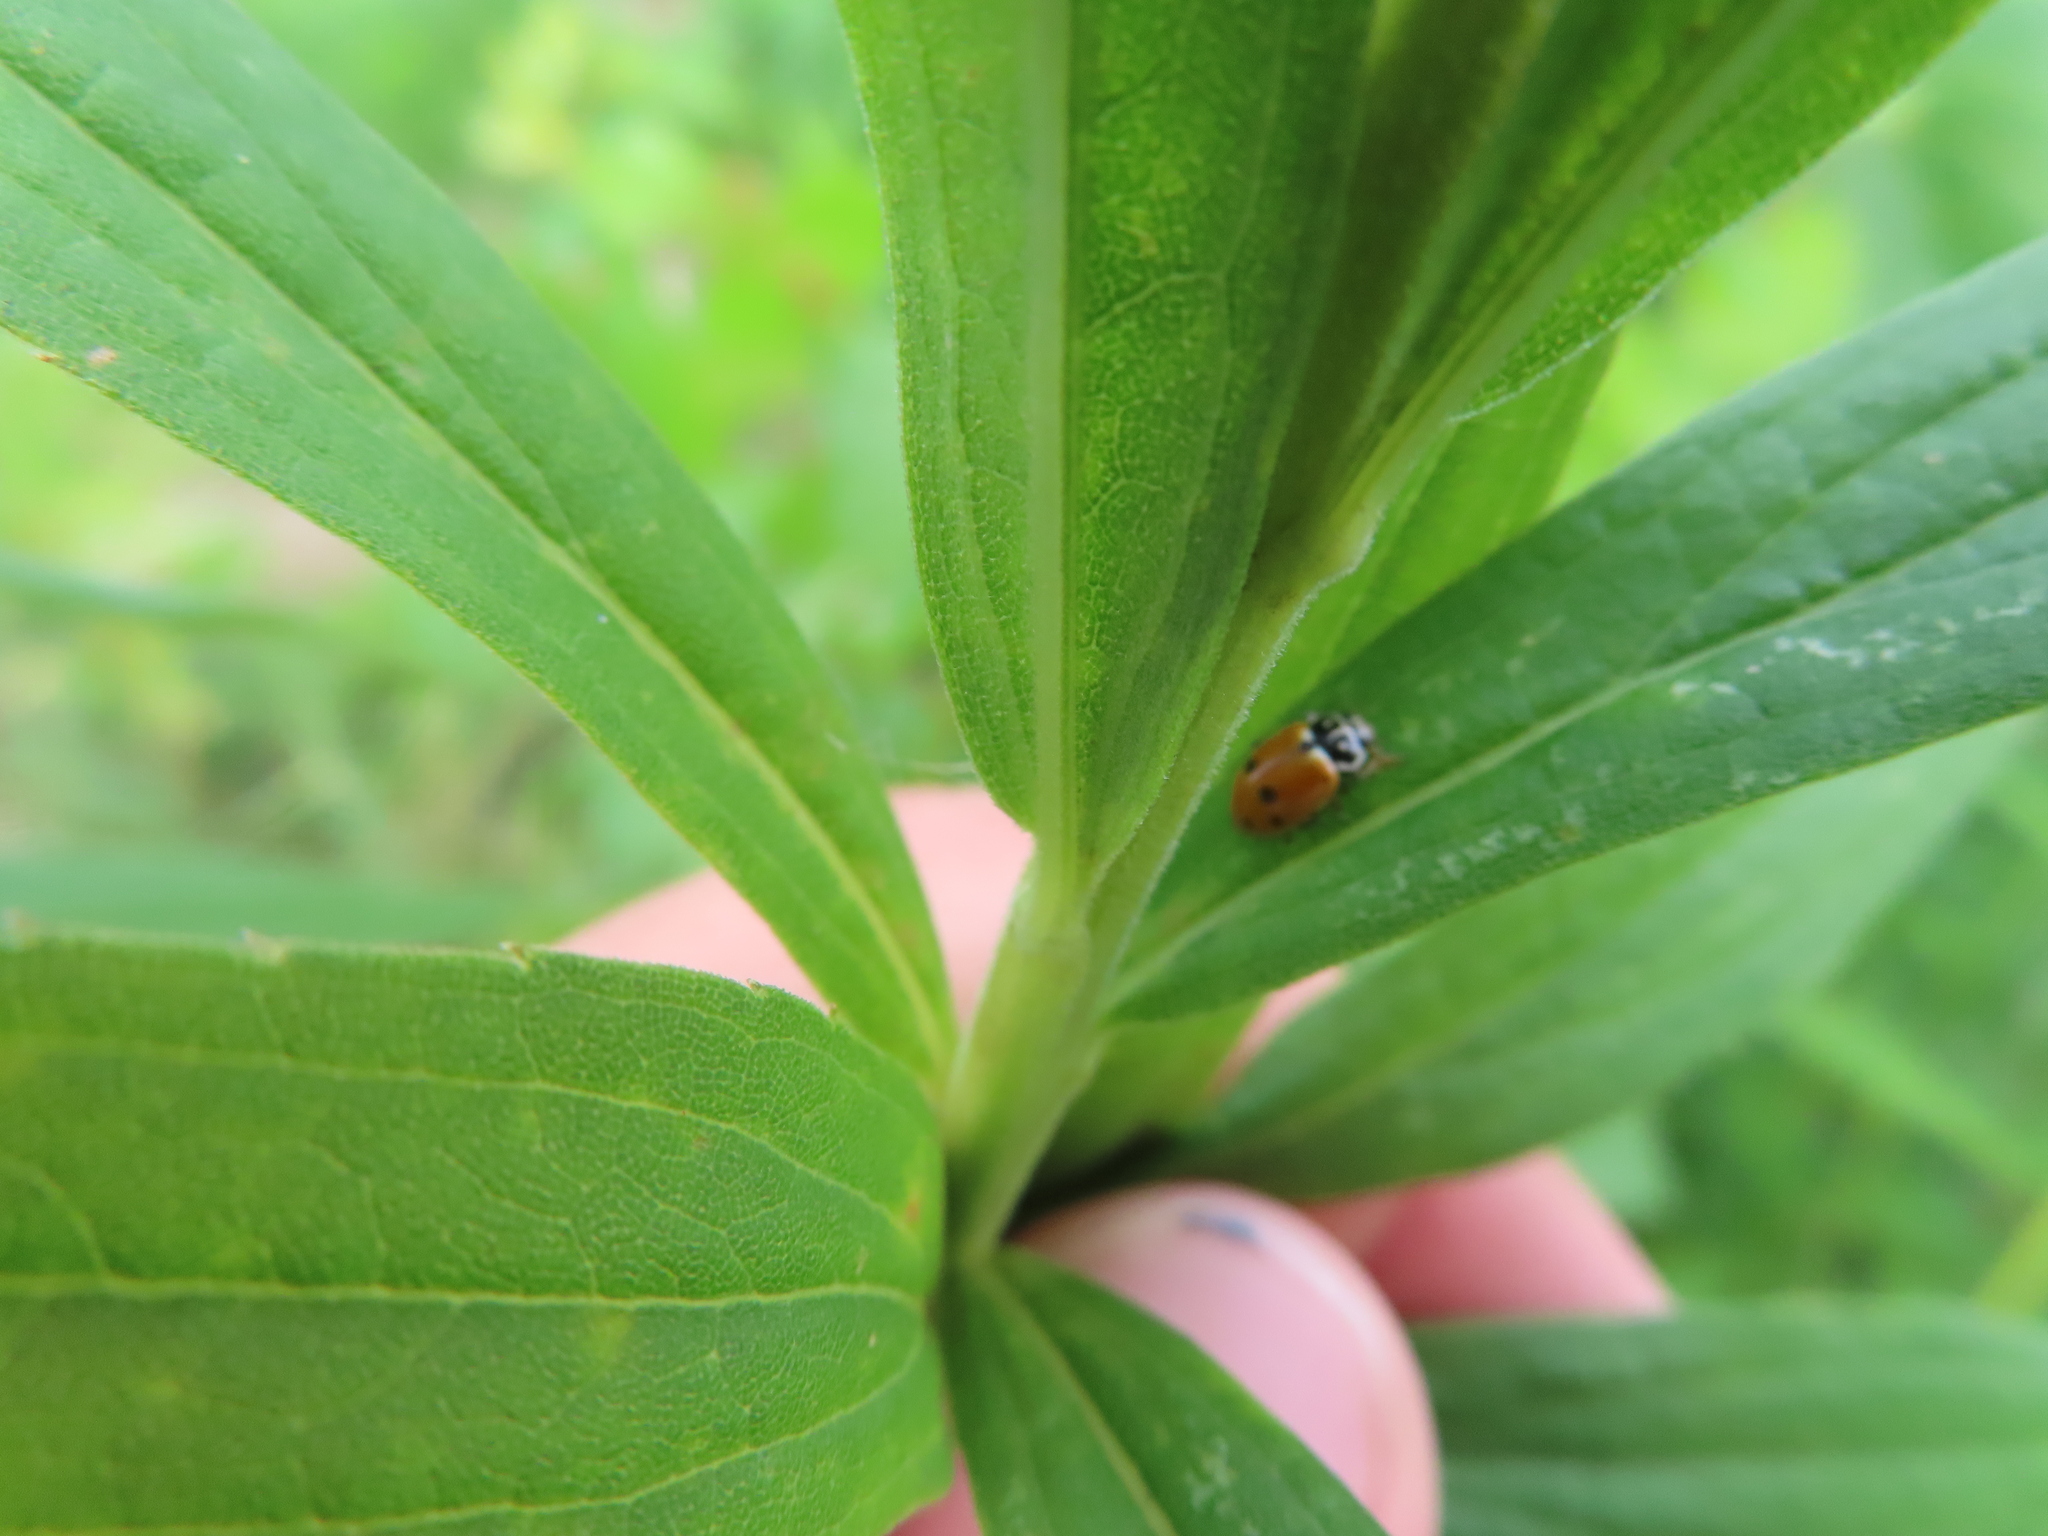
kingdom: Animalia
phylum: Arthropoda
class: Insecta
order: Coleoptera
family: Coccinellidae
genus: Hippodamia
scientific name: Hippodamia variegata
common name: Ladybird beetle
